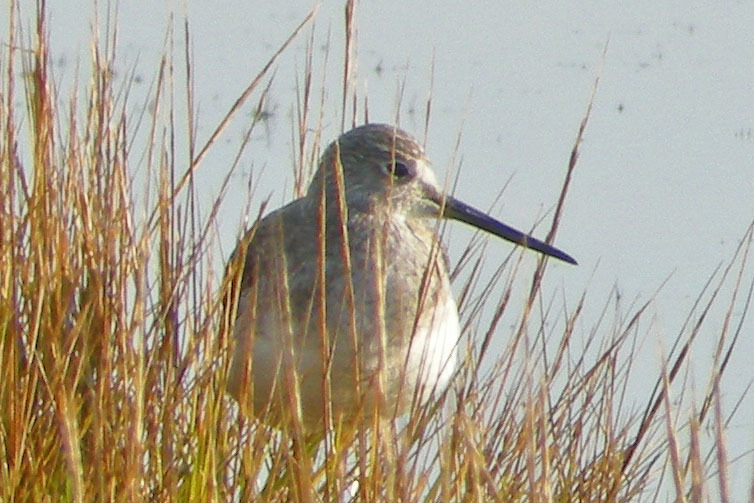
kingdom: Animalia
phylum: Chordata
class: Aves
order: Charadriiformes
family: Scolopacidae
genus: Tringa
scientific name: Tringa melanoleuca
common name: Greater yellowlegs
